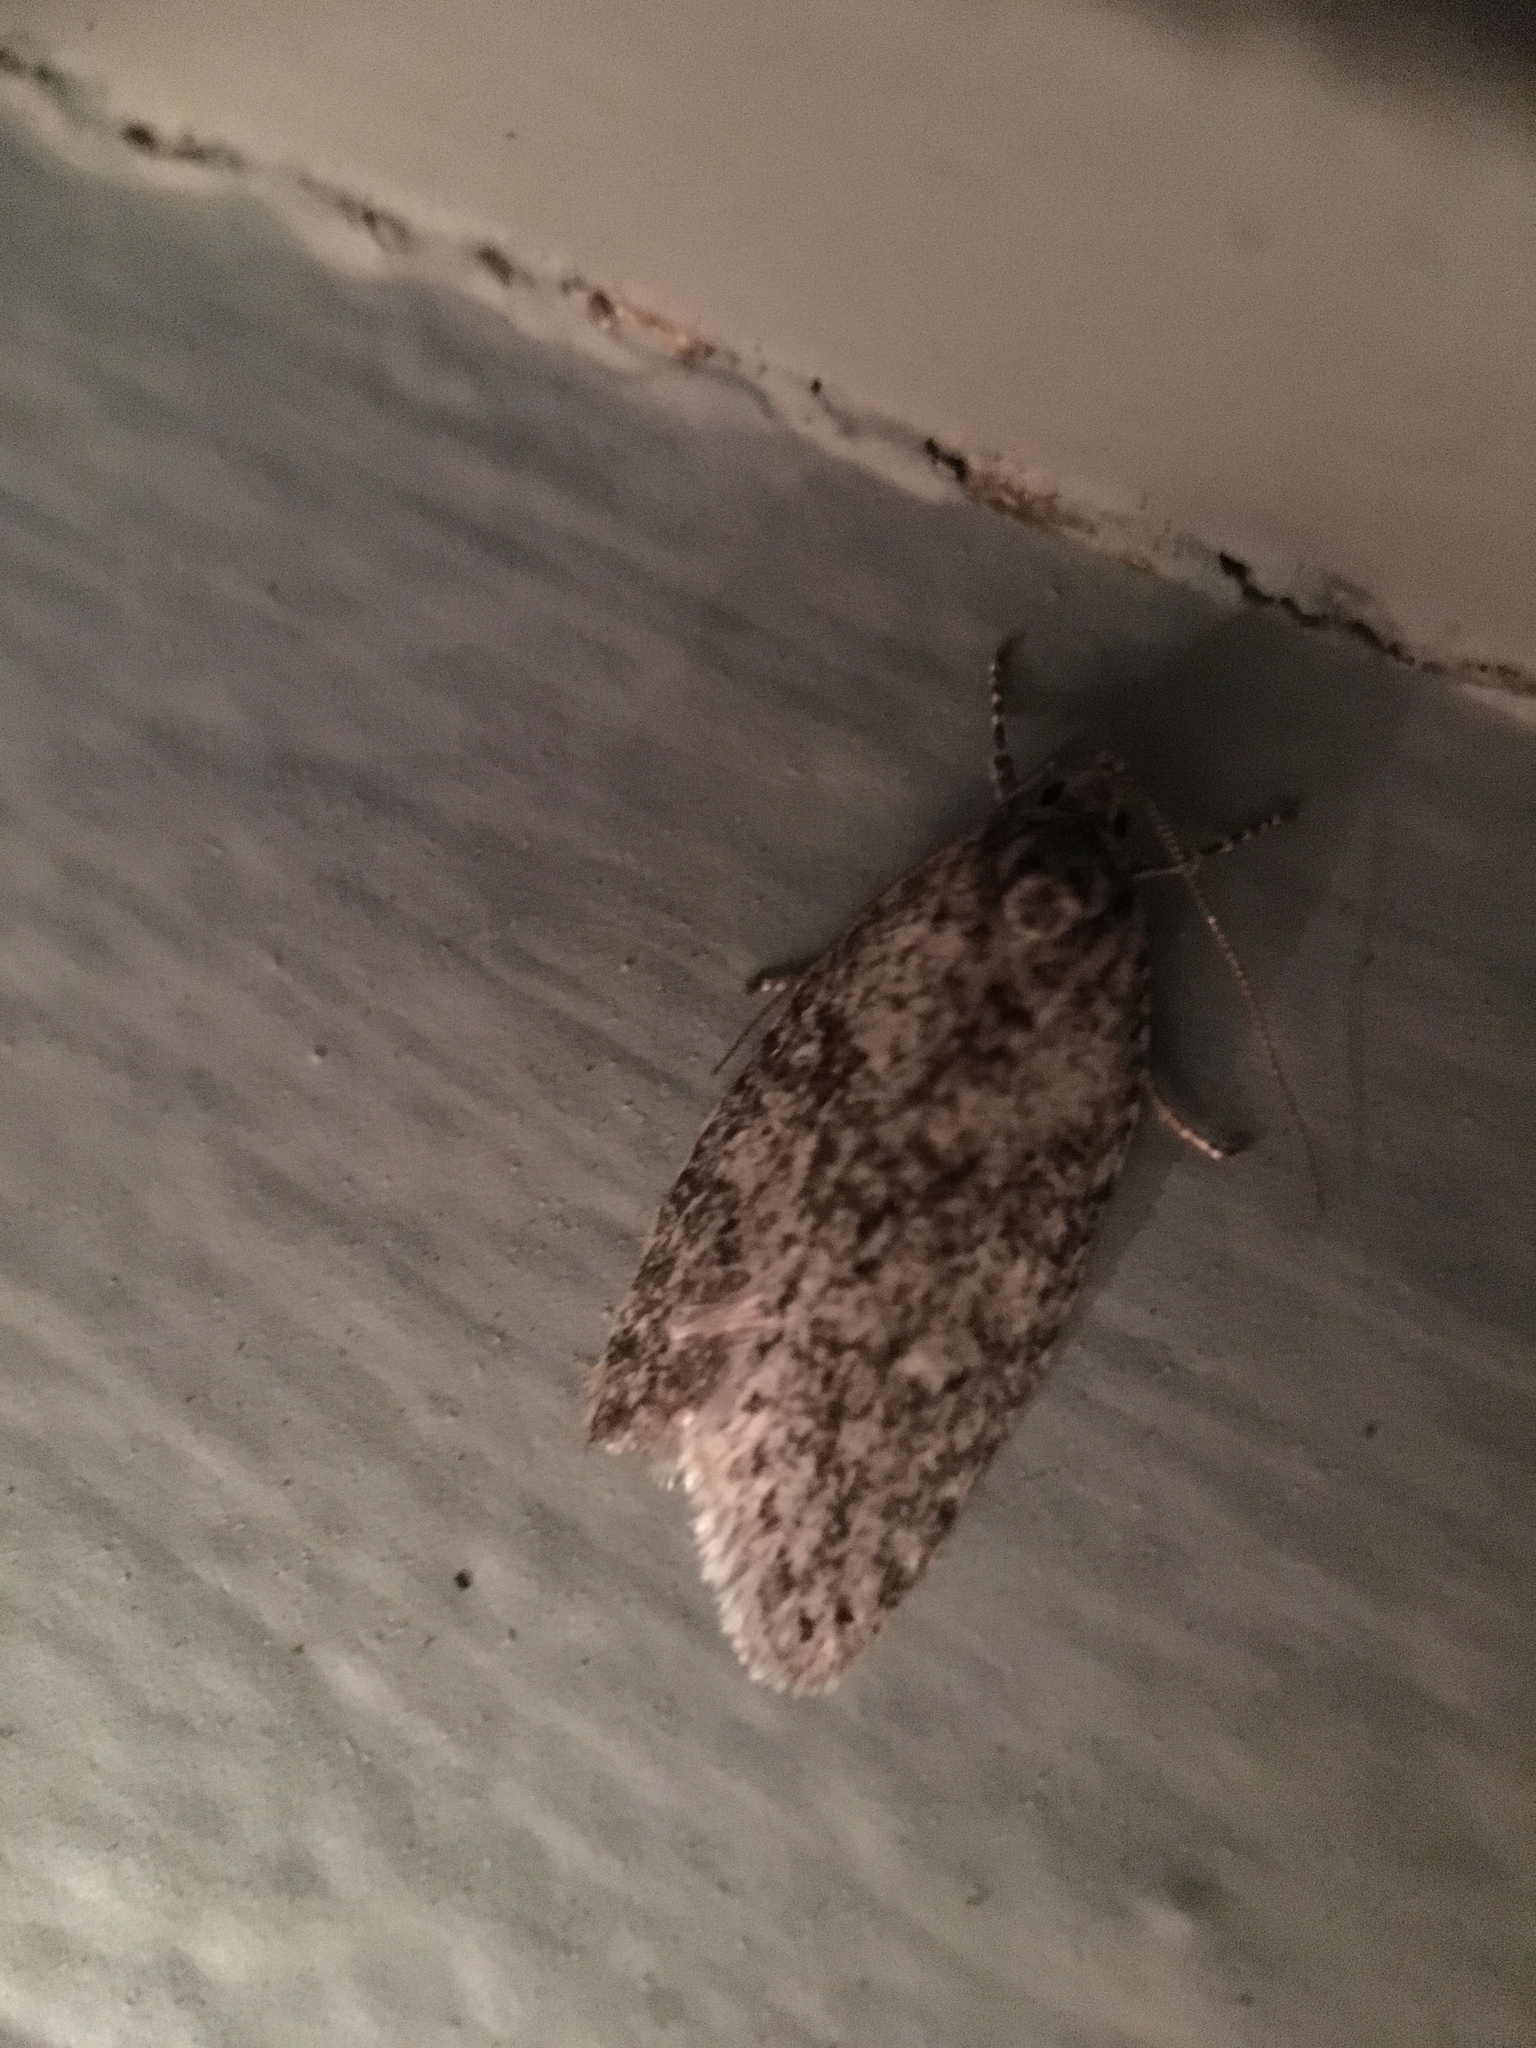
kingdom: Animalia
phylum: Arthropoda
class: Insecta
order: Lepidoptera
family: Depressariidae
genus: Semioscopis
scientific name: Semioscopis inornata
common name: Poplar micromoth
